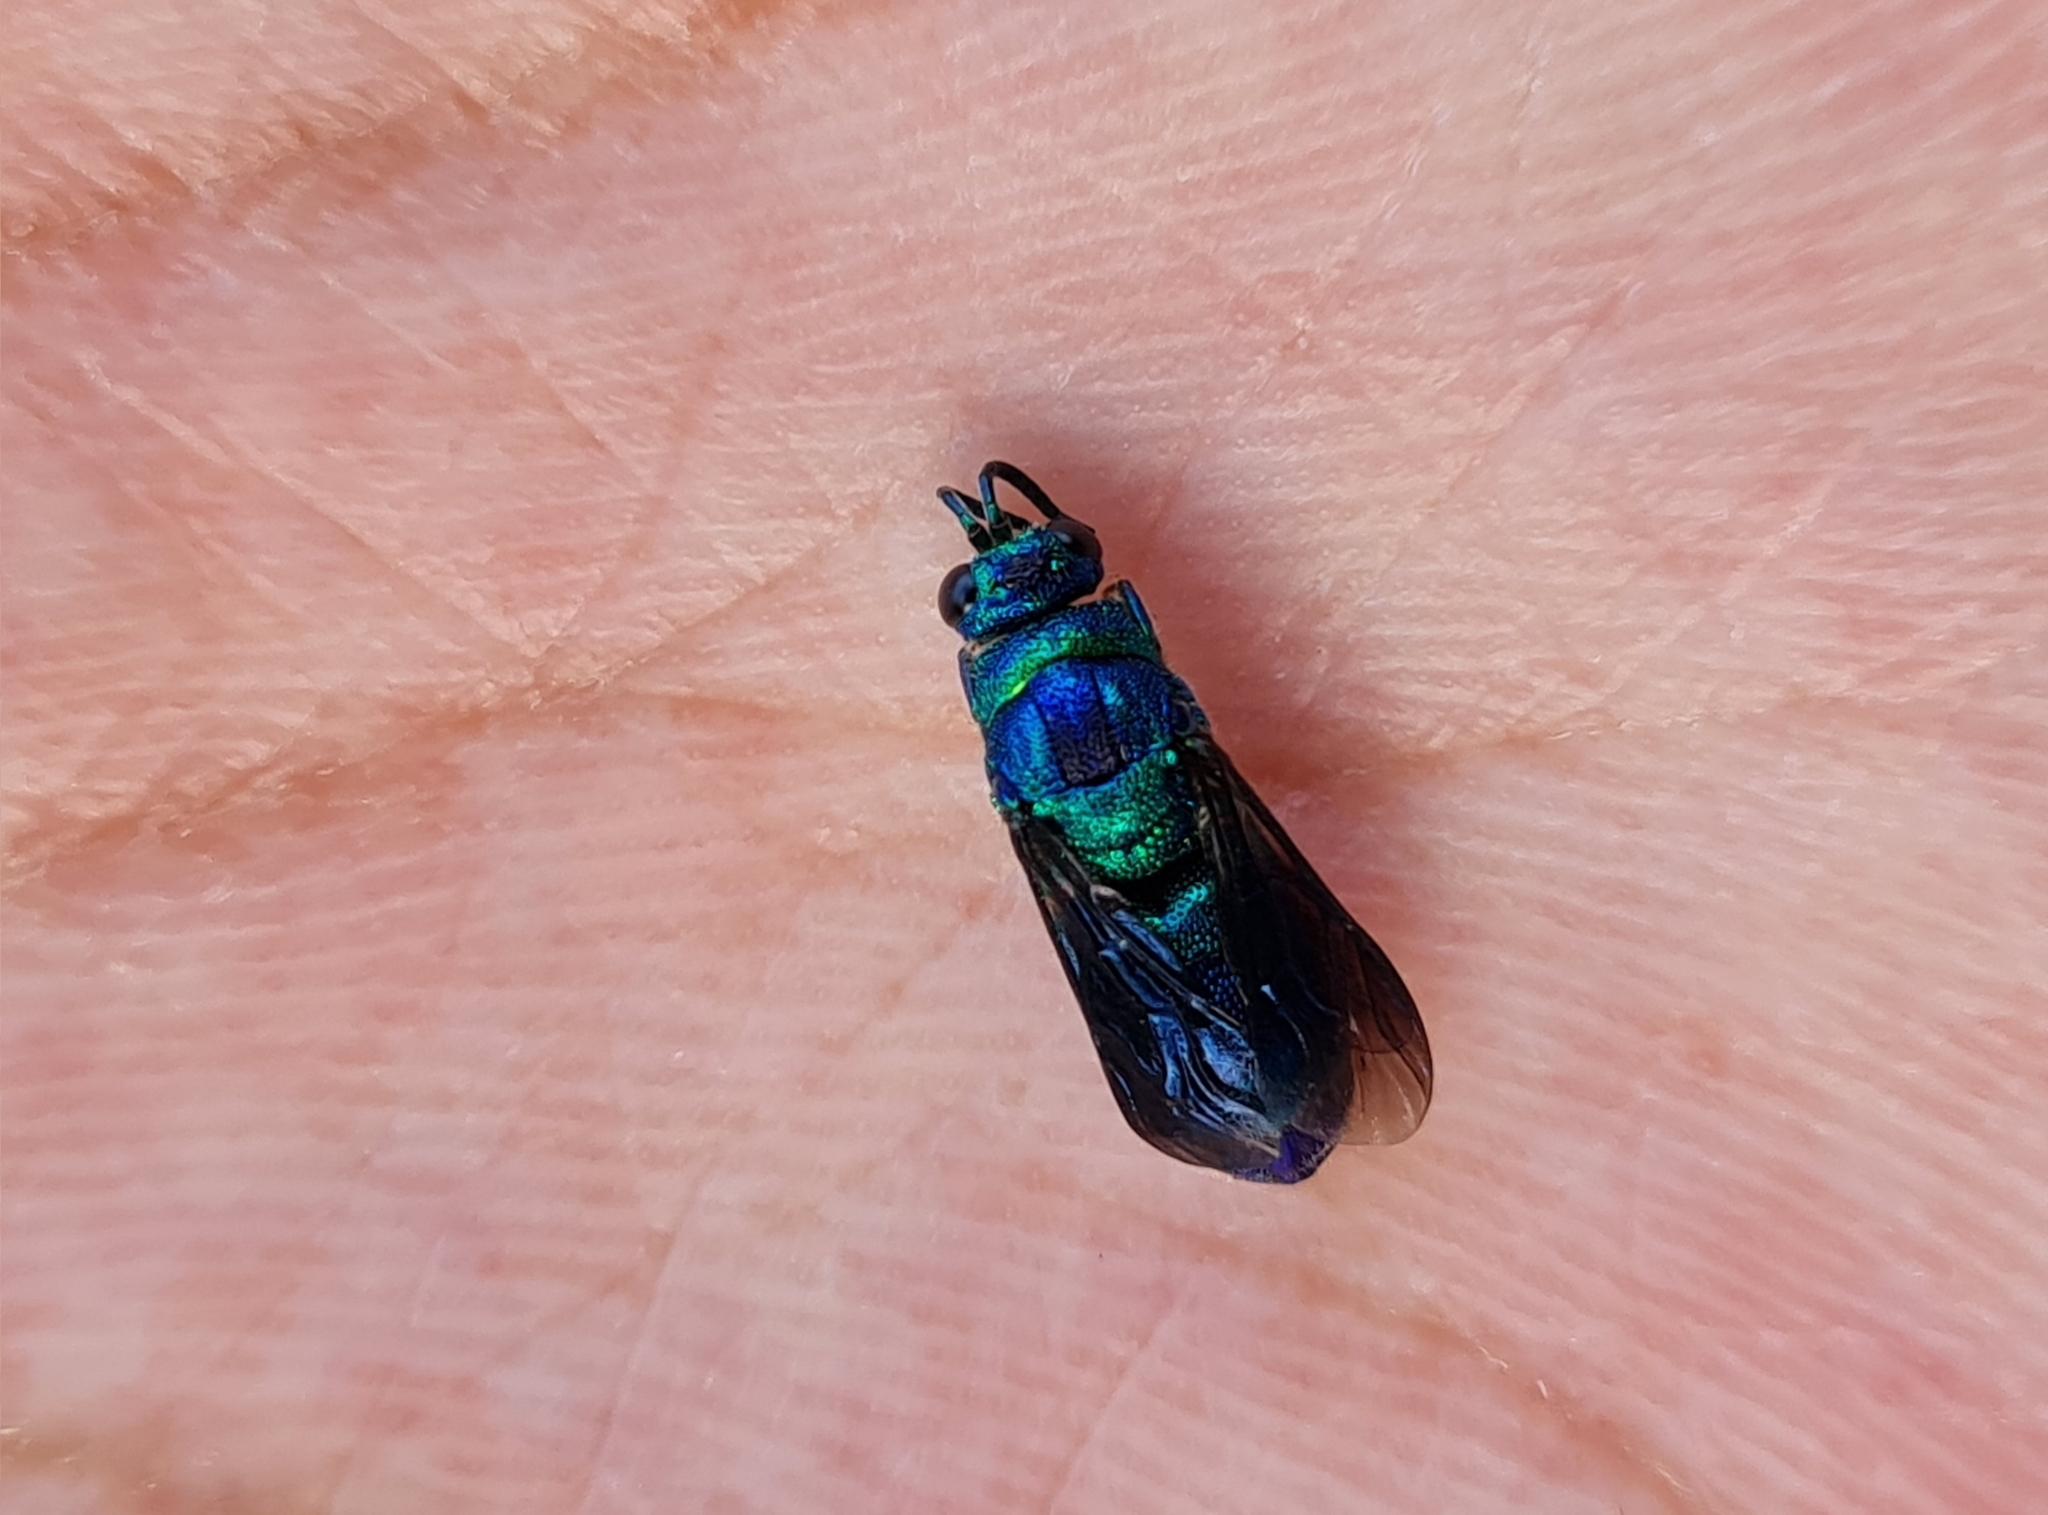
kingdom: Animalia
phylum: Arthropoda
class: Insecta
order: Hymenoptera
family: Chrysididae
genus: Chrysis
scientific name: Chrysis angolensis
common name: Cuckoo wasp
